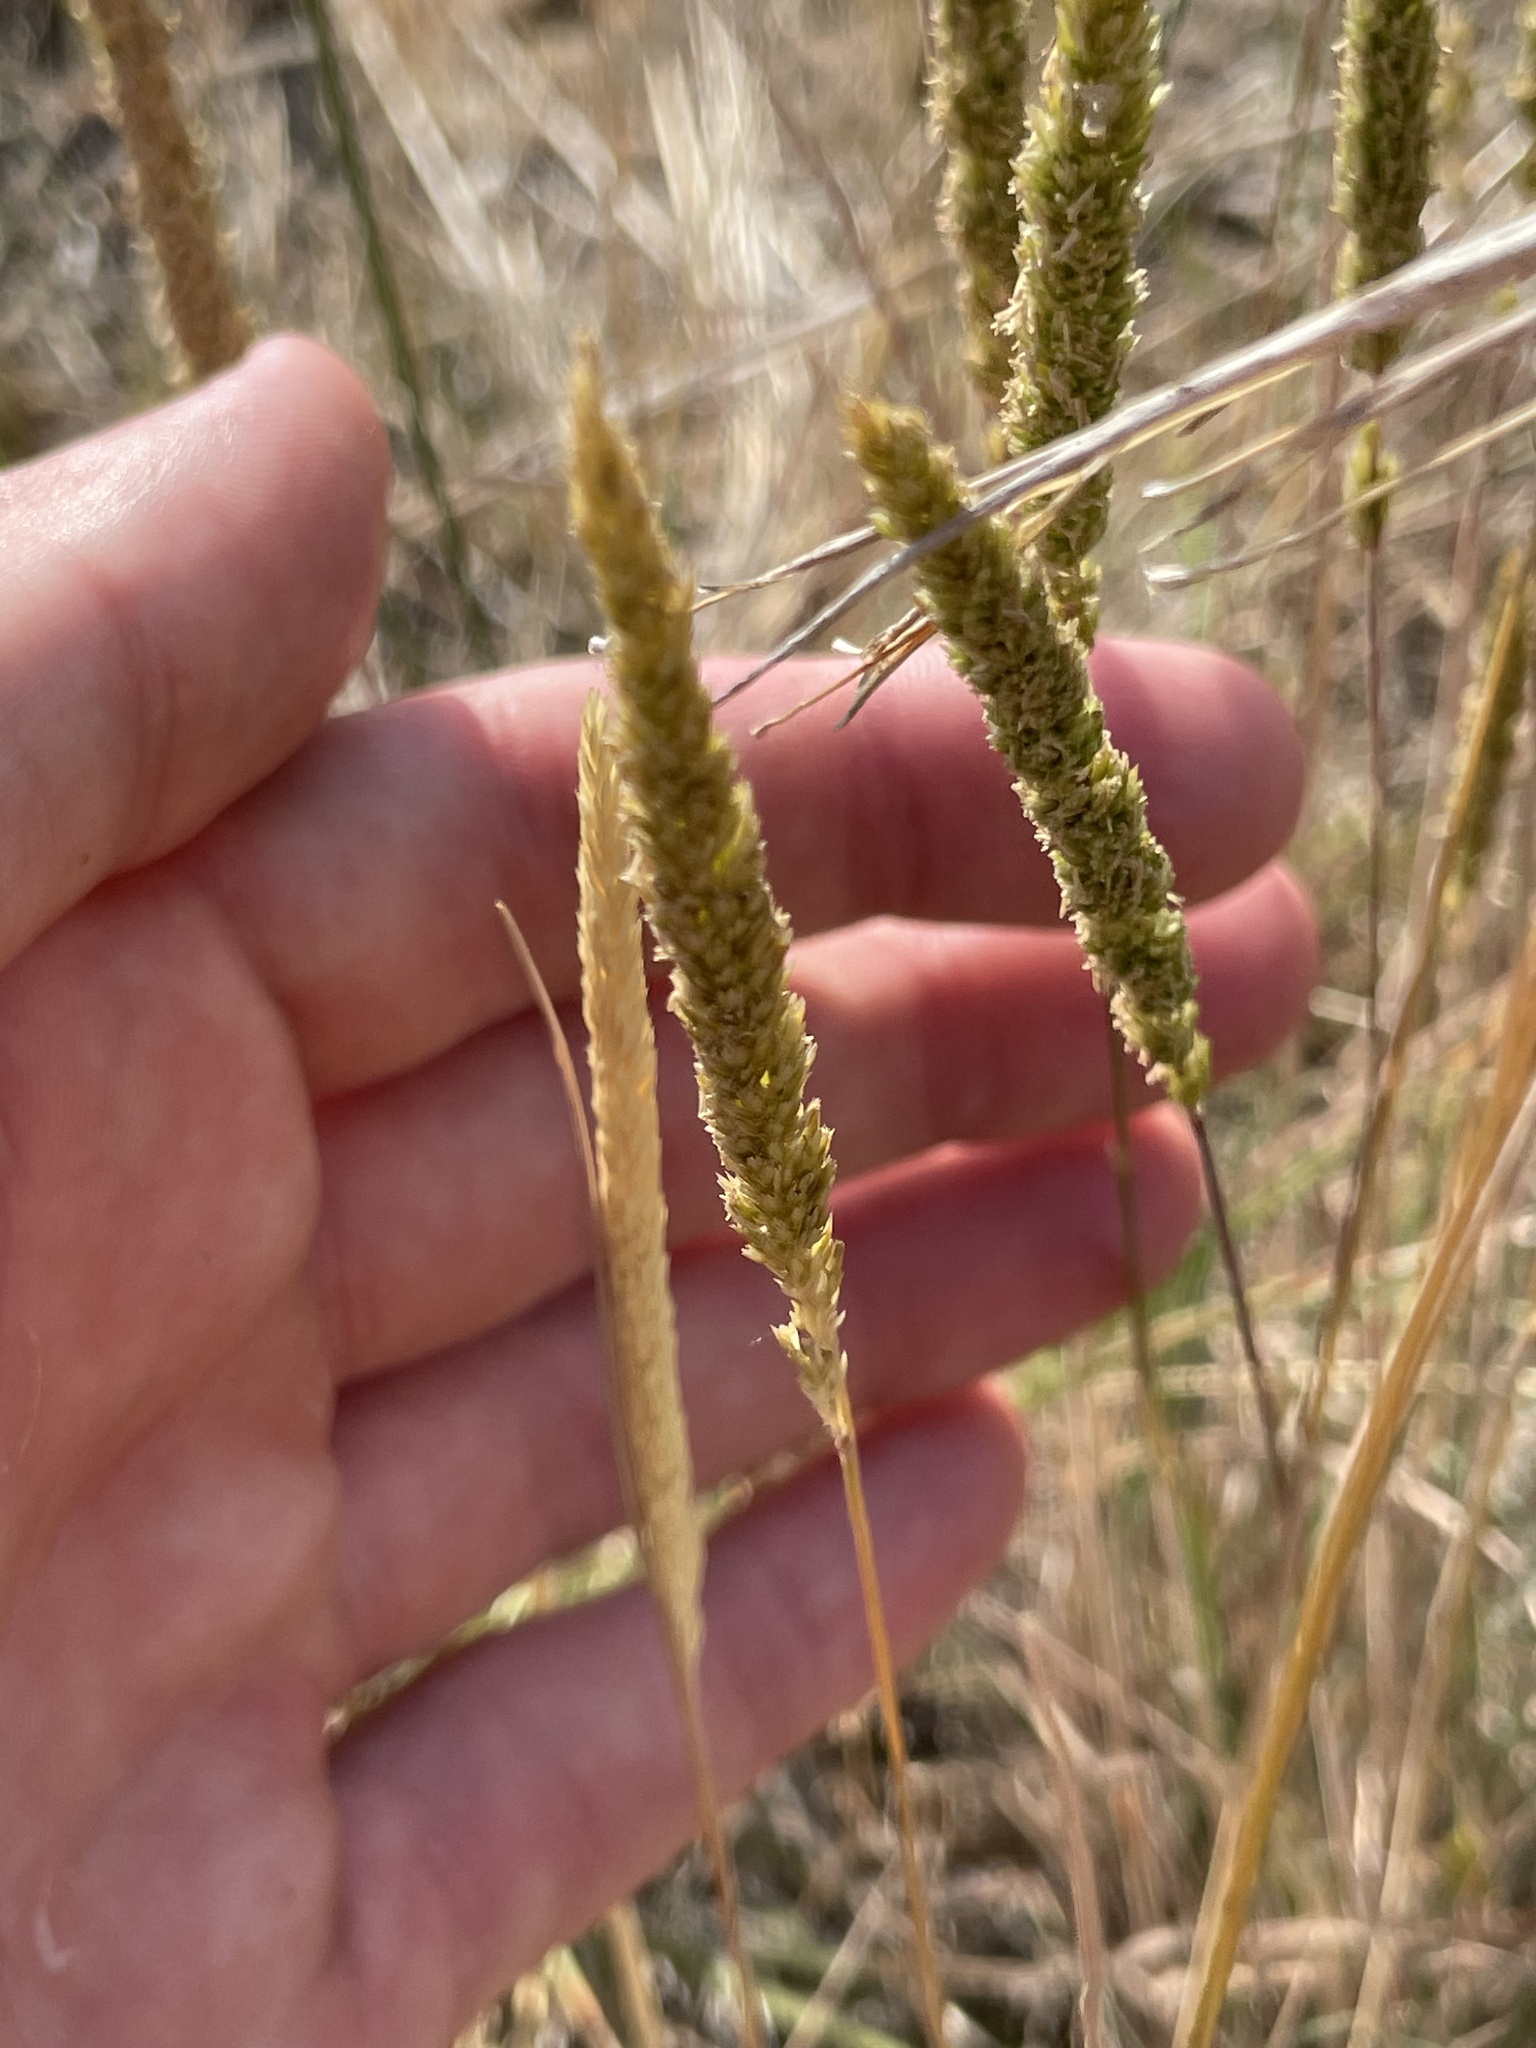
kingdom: Plantae
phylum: Tracheophyta
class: Liliopsida
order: Poales
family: Poaceae
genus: Koeleria
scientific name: Koeleria macrantha
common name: Crested hair-grass
